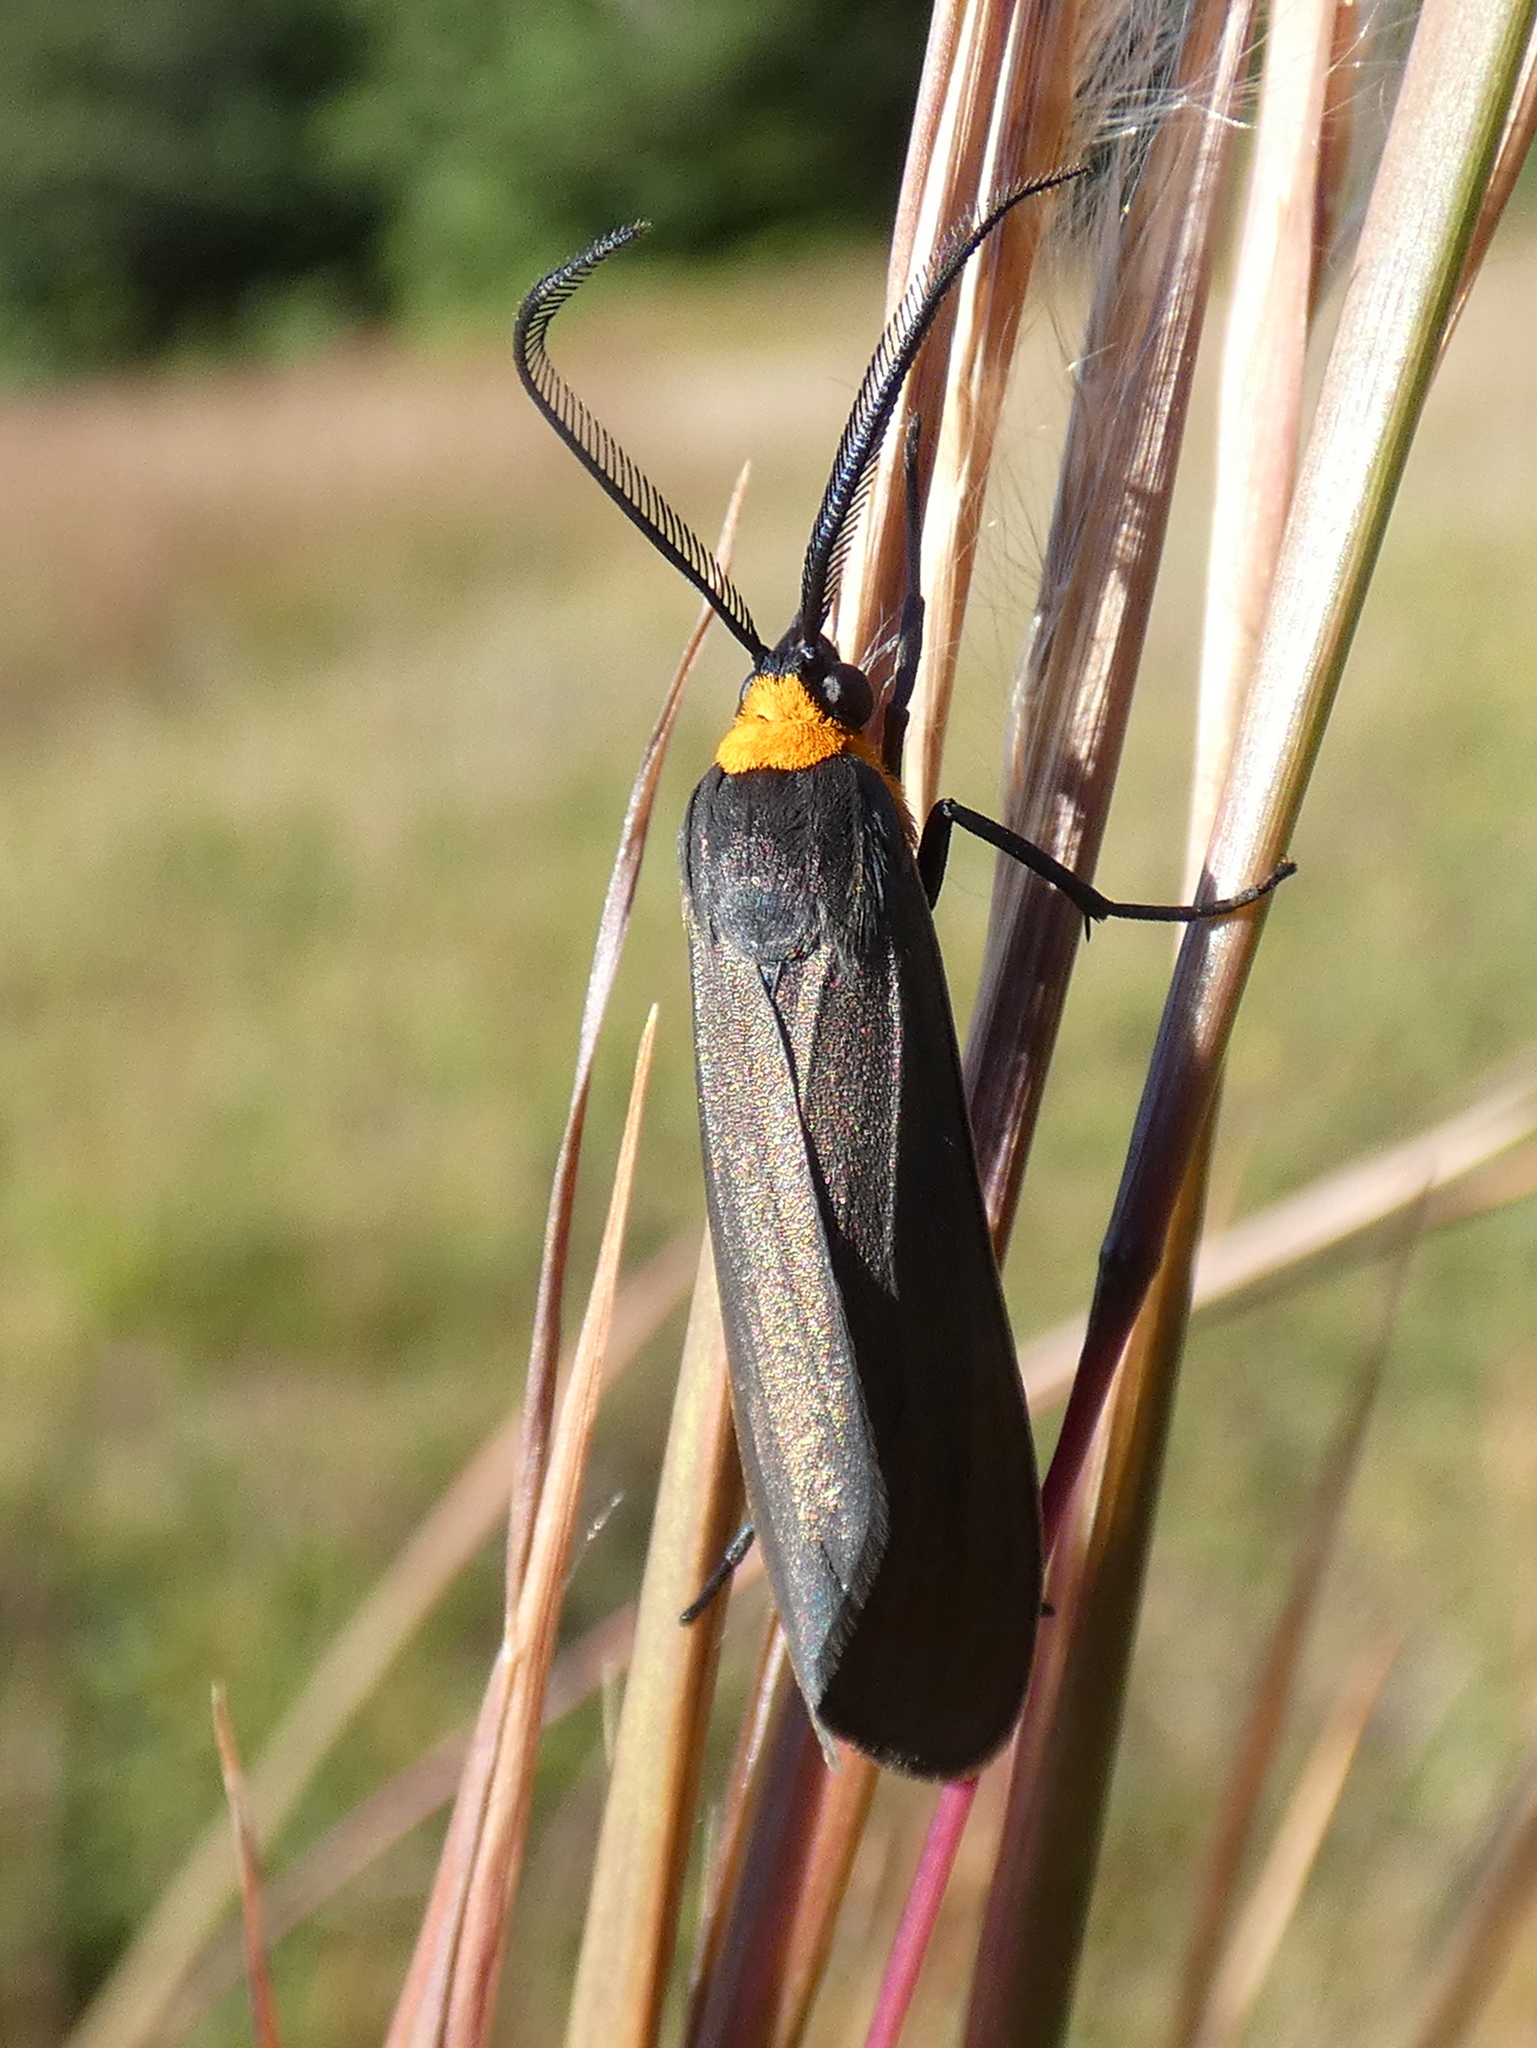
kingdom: Animalia
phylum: Arthropoda
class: Insecta
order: Lepidoptera
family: Erebidae
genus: Cisseps
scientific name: Cisseps fulvicollis
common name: Yellow-collared scape moth
